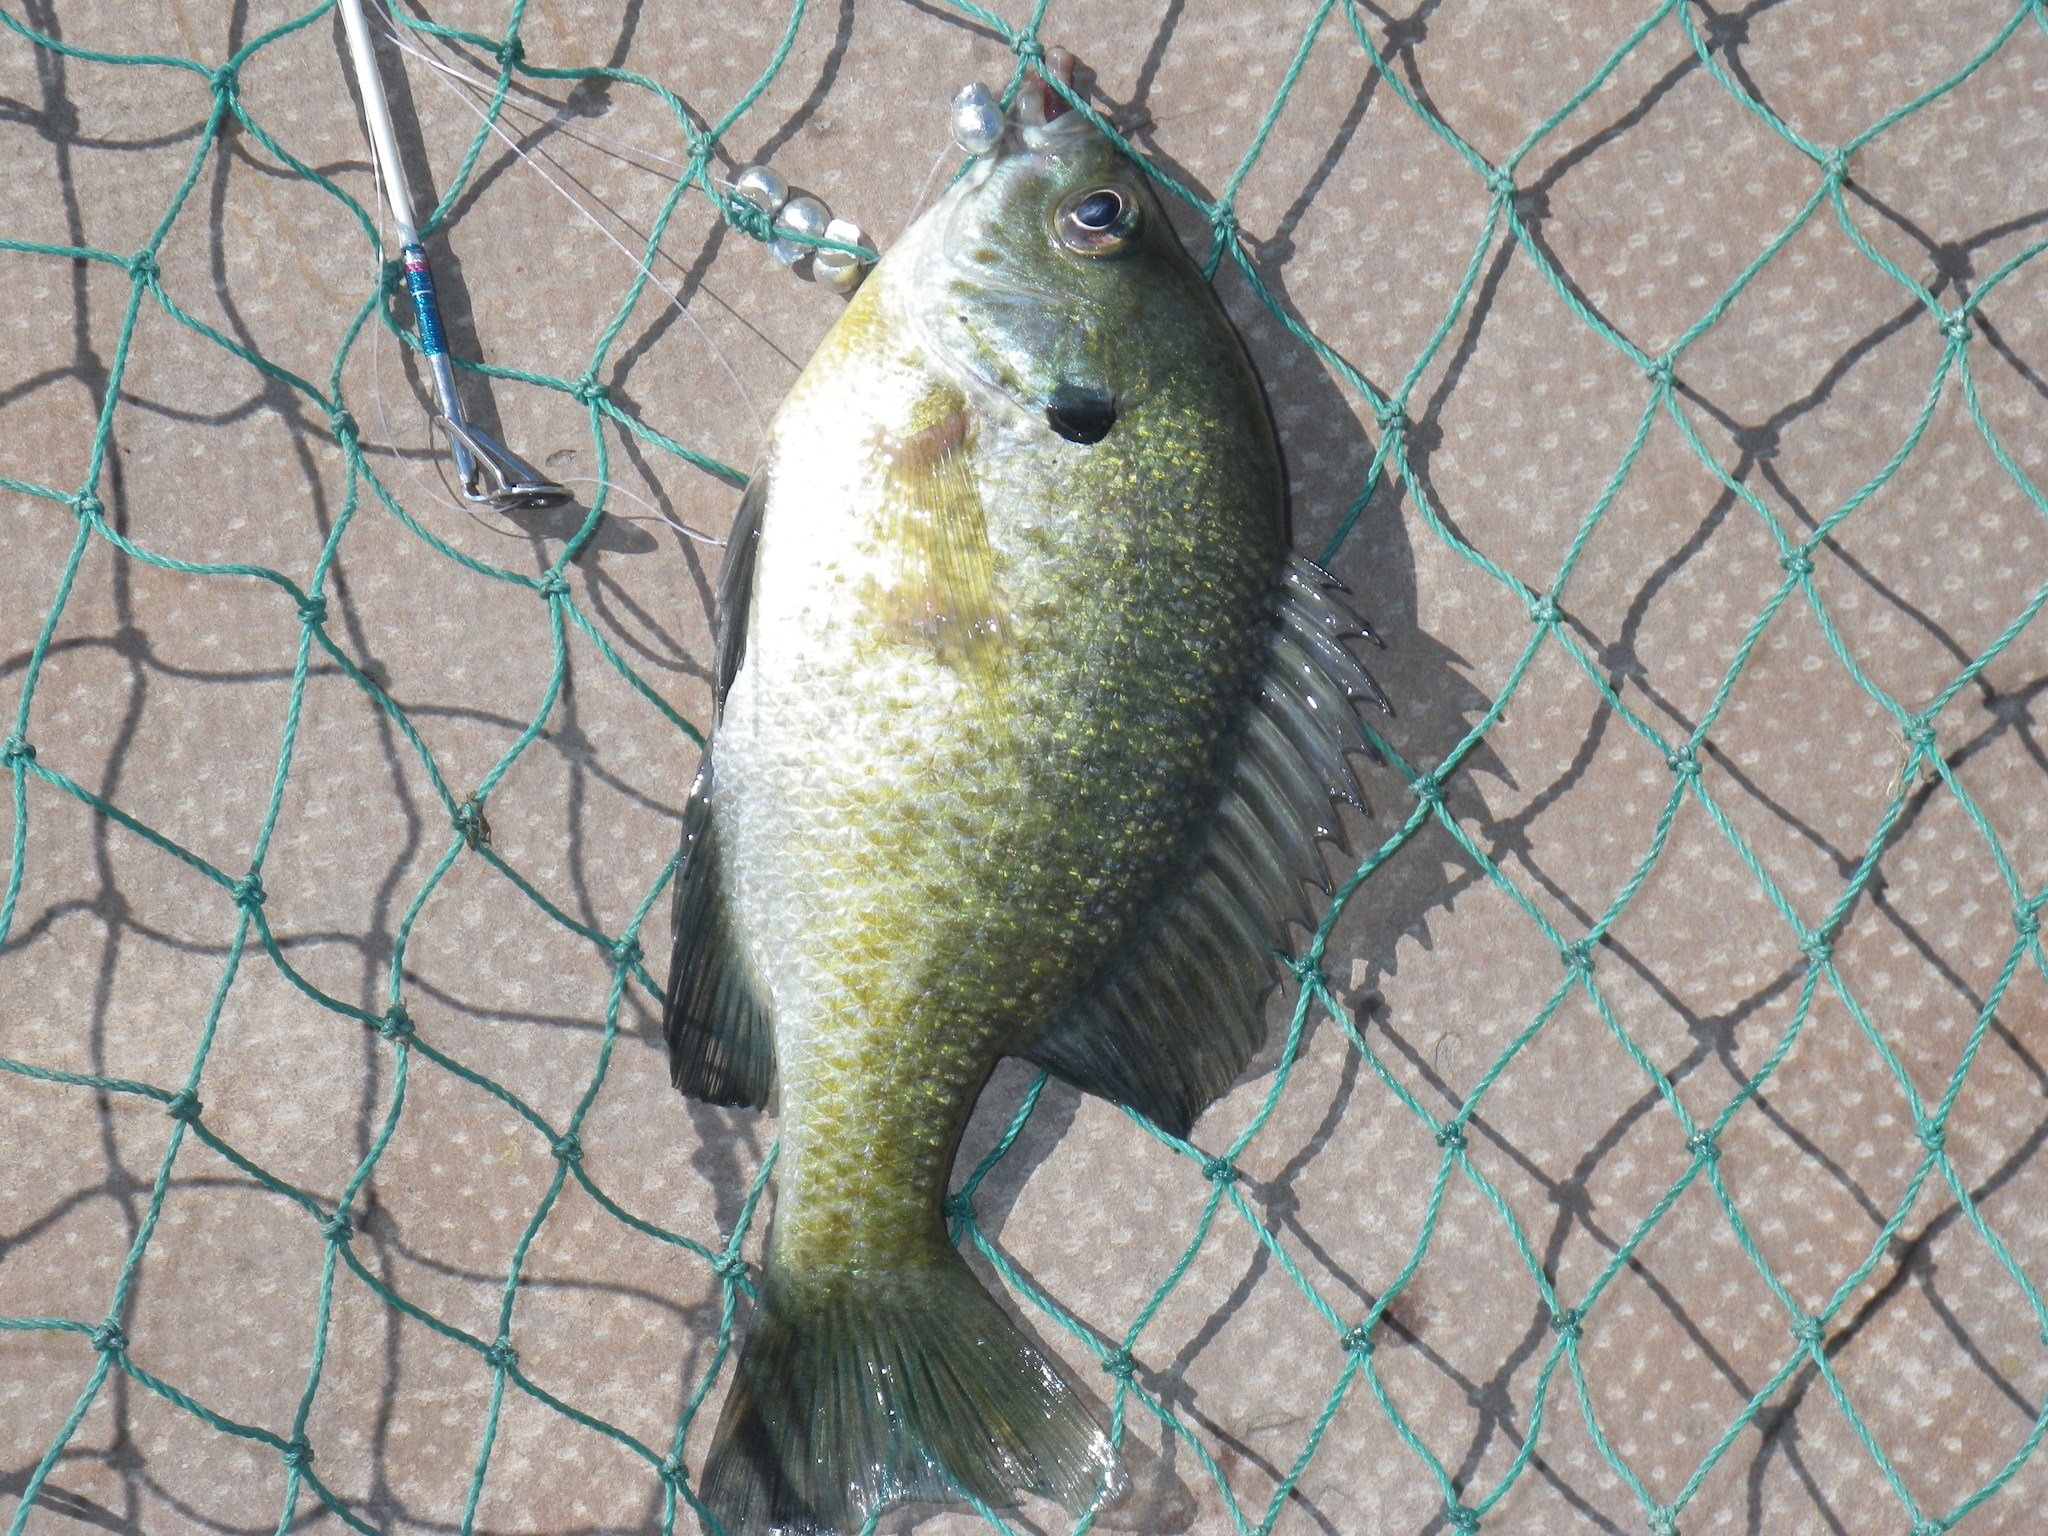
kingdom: Animalia
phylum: Chordata
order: Perciformes
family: Centrarchidae
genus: Lepomis
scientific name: Lepomis macrochirus
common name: Bluegill
